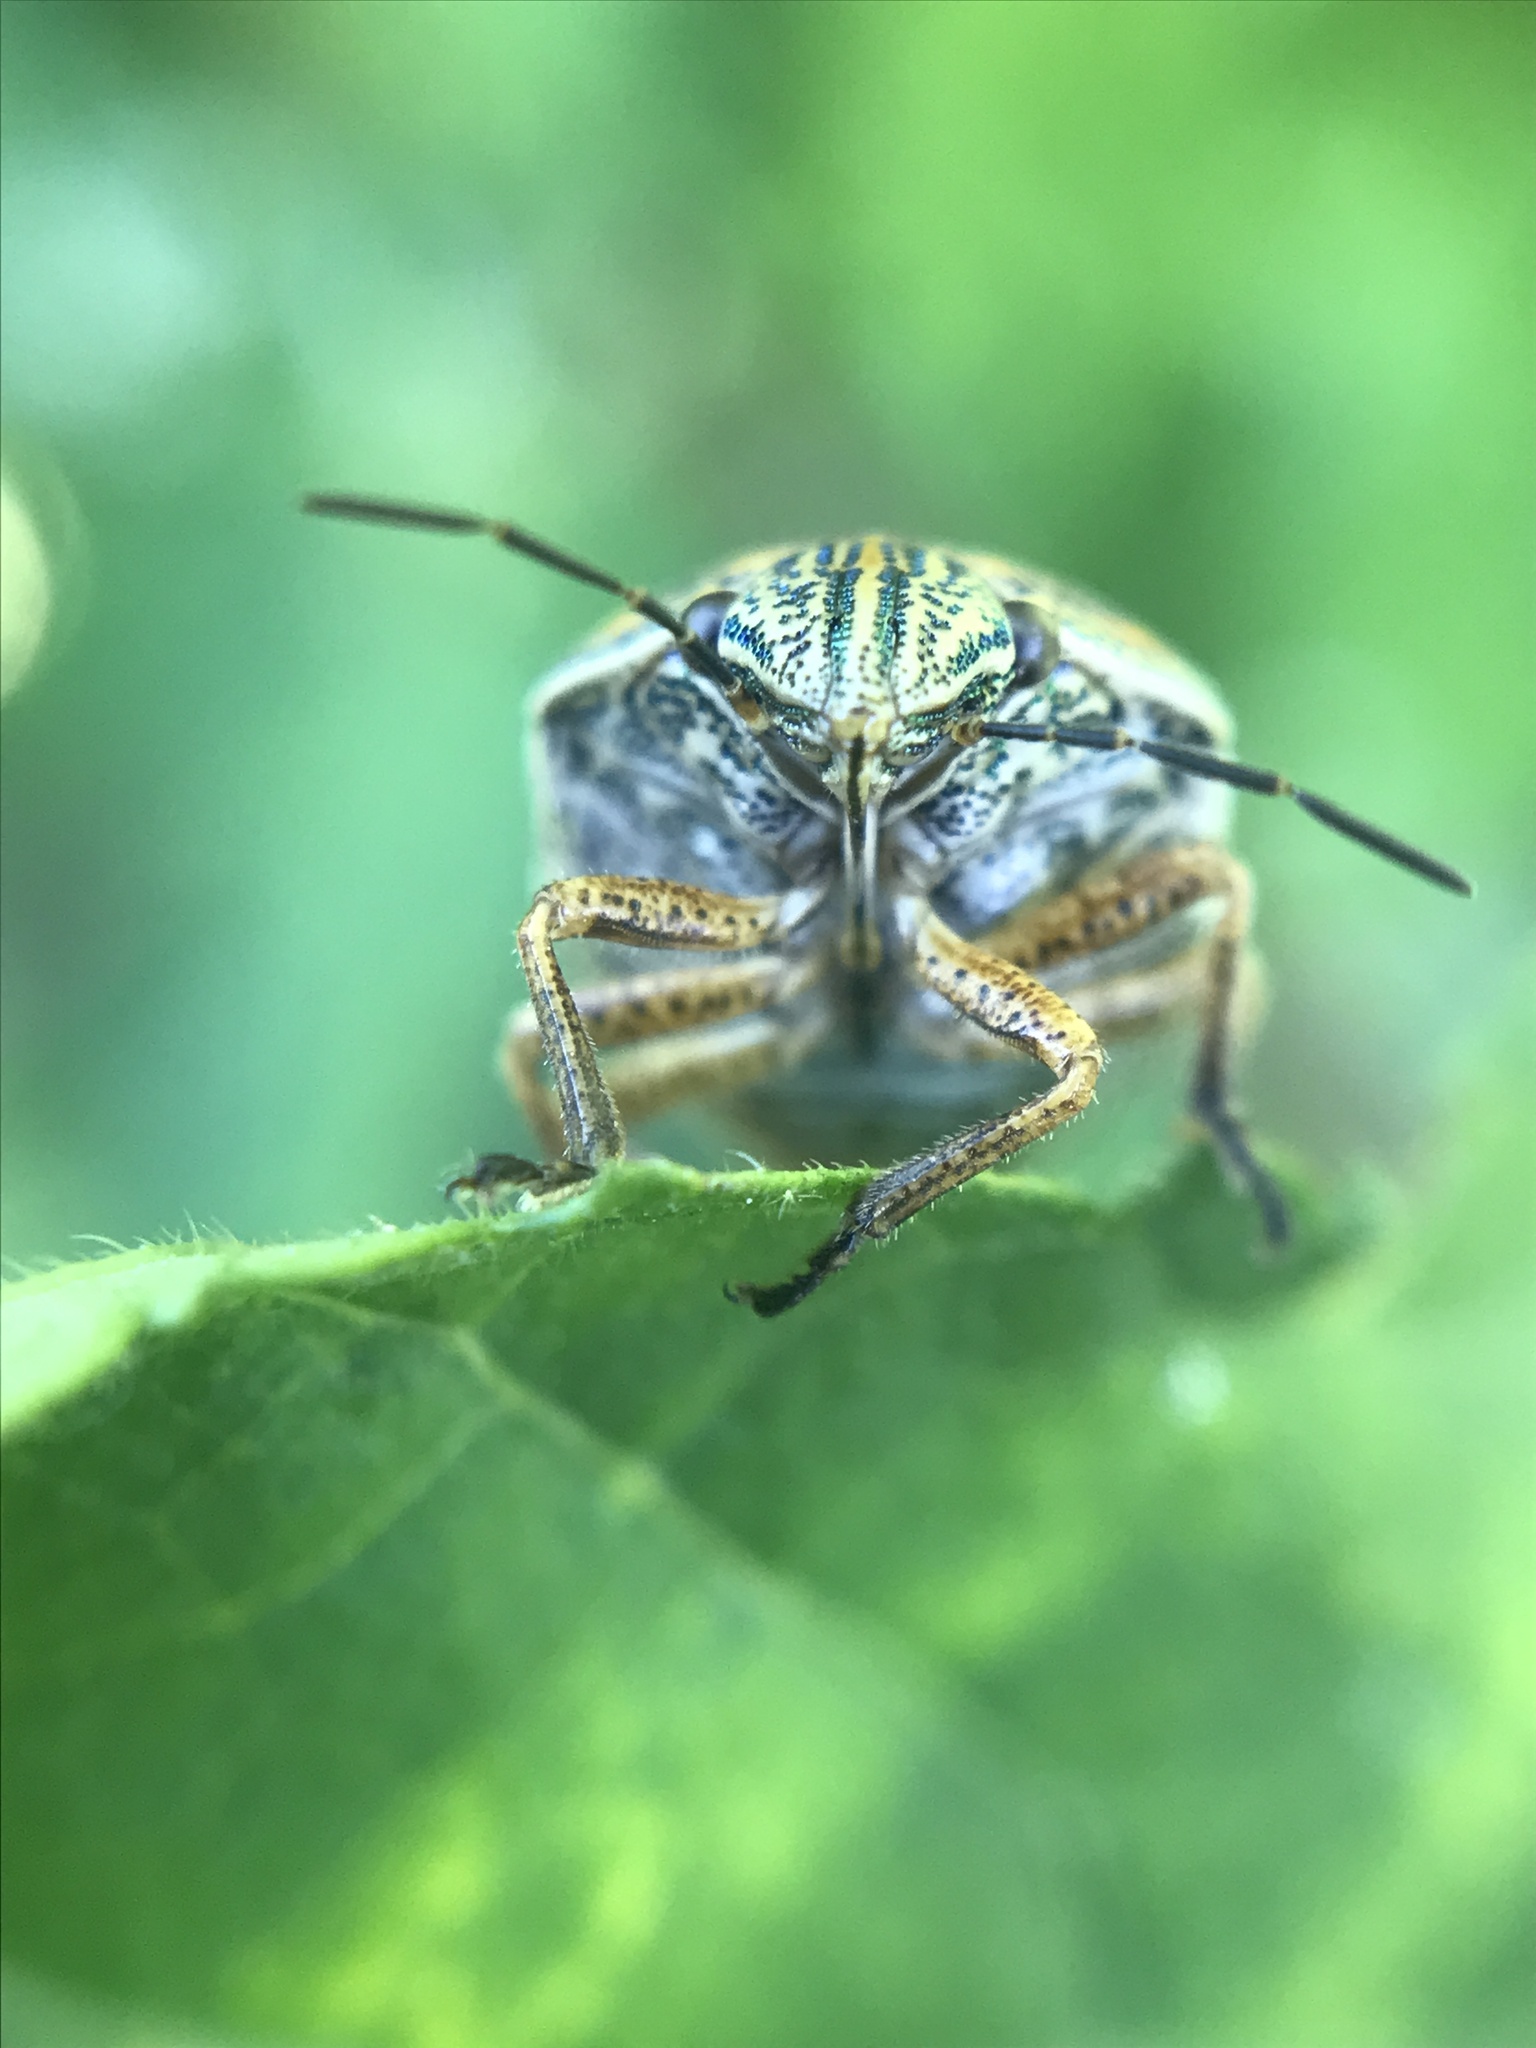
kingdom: Animalia
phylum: Arthropoda
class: Insecta
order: Hemiptera
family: Scutelleridae
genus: Orsilochides
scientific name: Orsilochides
